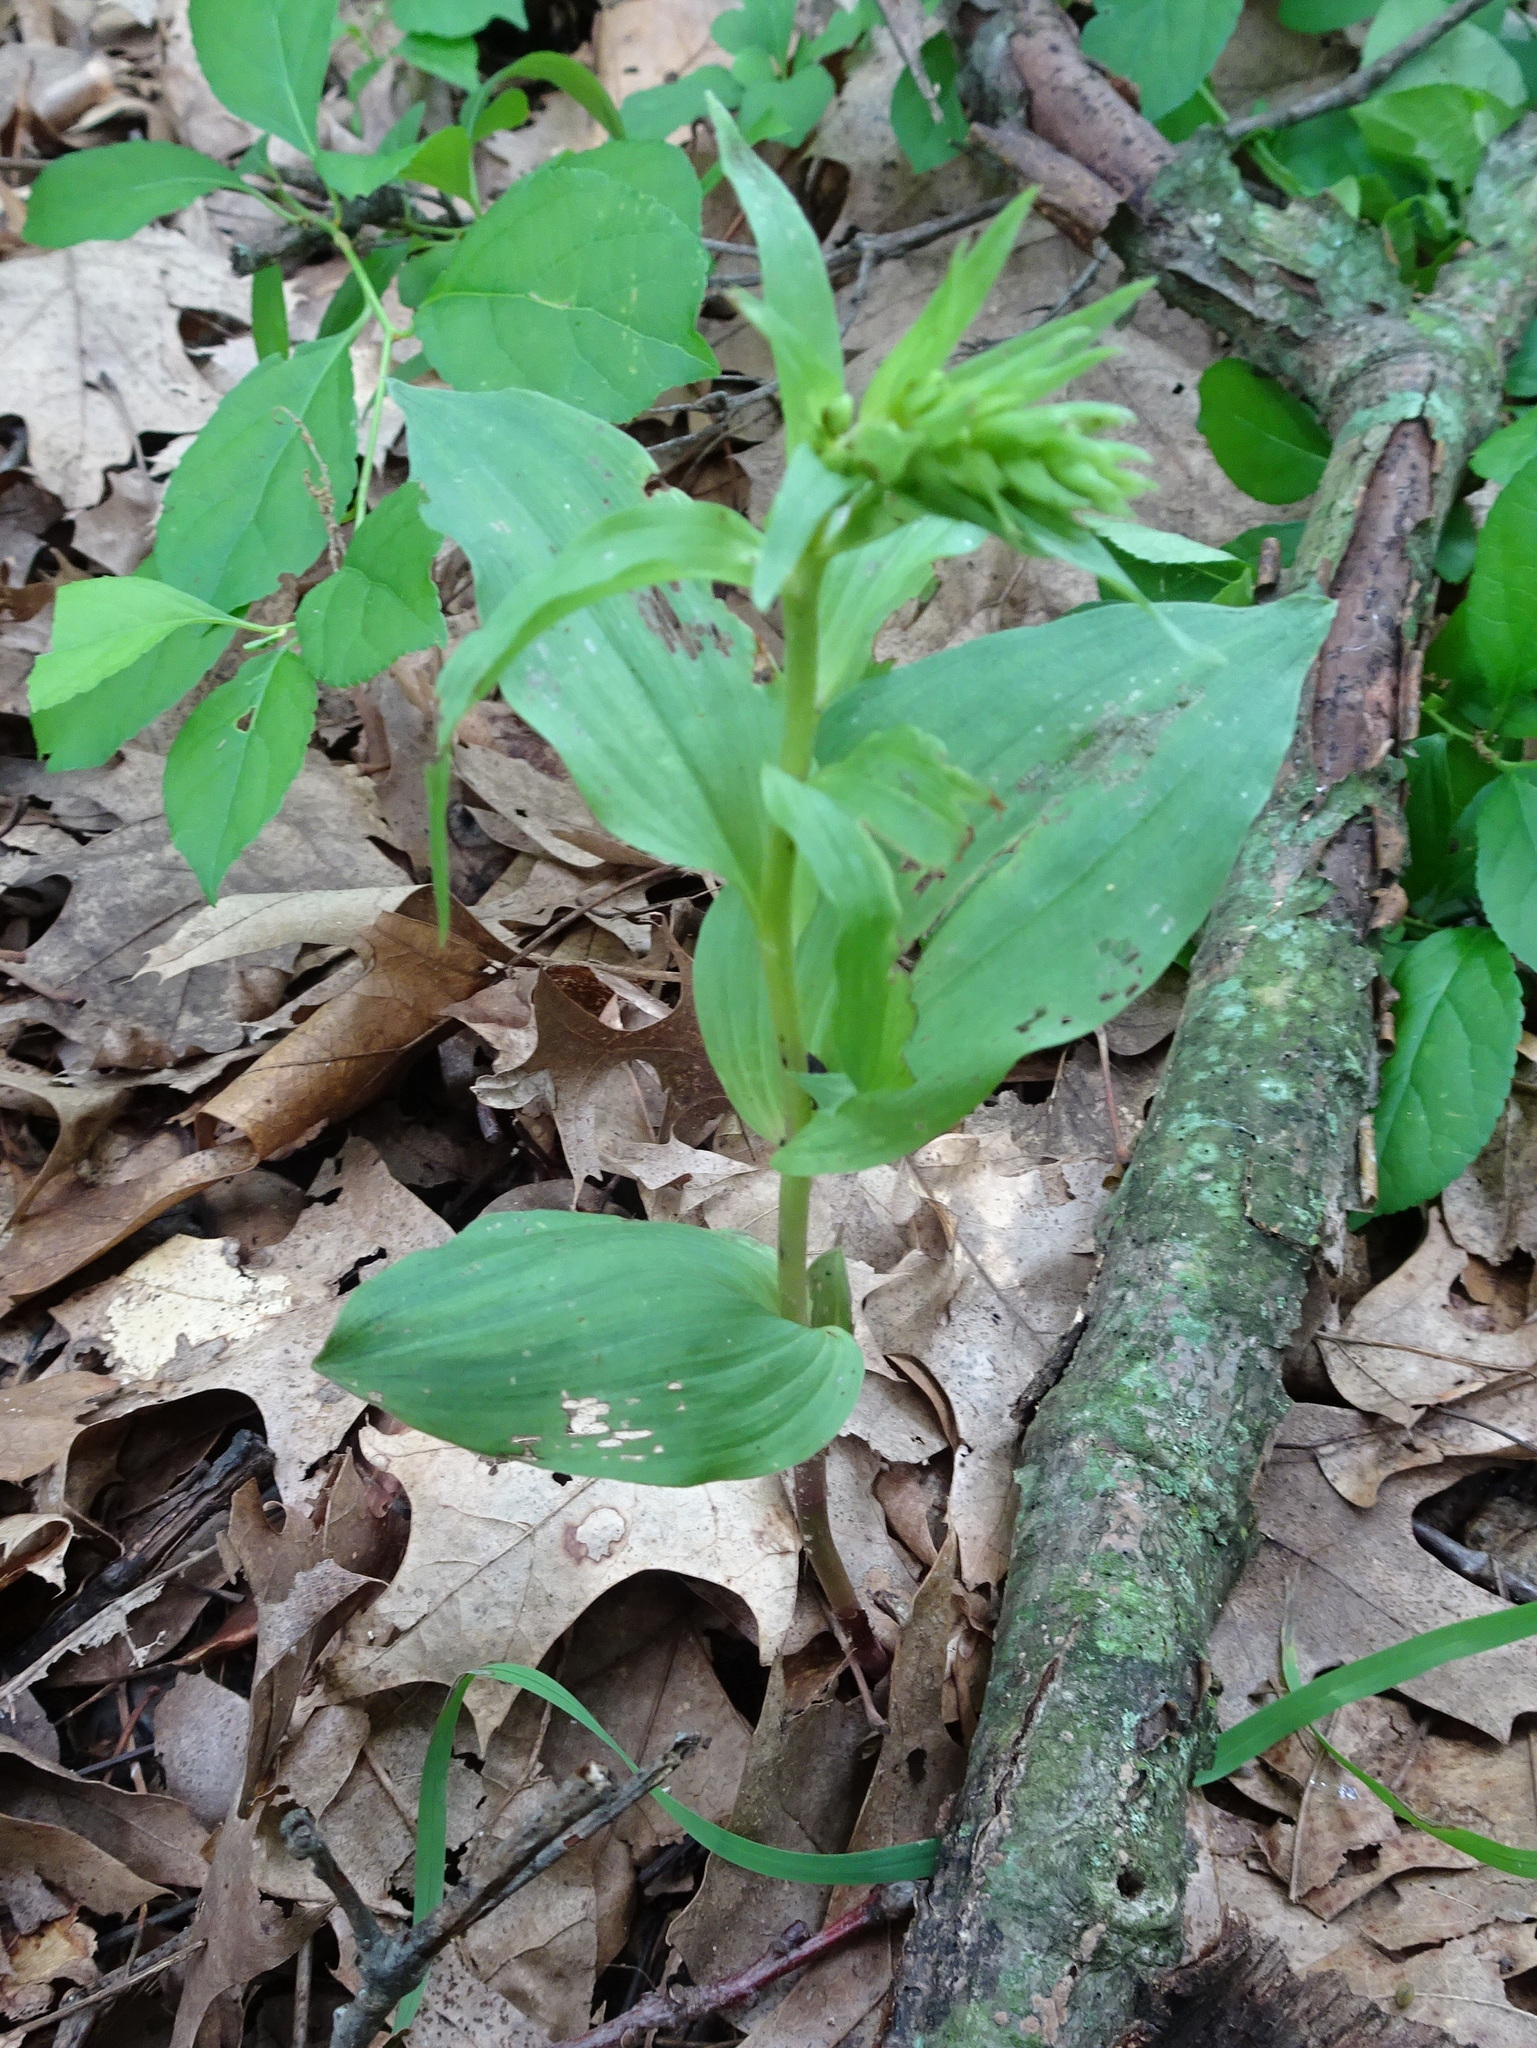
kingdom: Plantae
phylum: Tracheophyta
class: Liliopsida
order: Asparagales
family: Orchidaceae
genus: Epipactis
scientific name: Epipactis helleborine
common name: Broad-leaved helleborine
